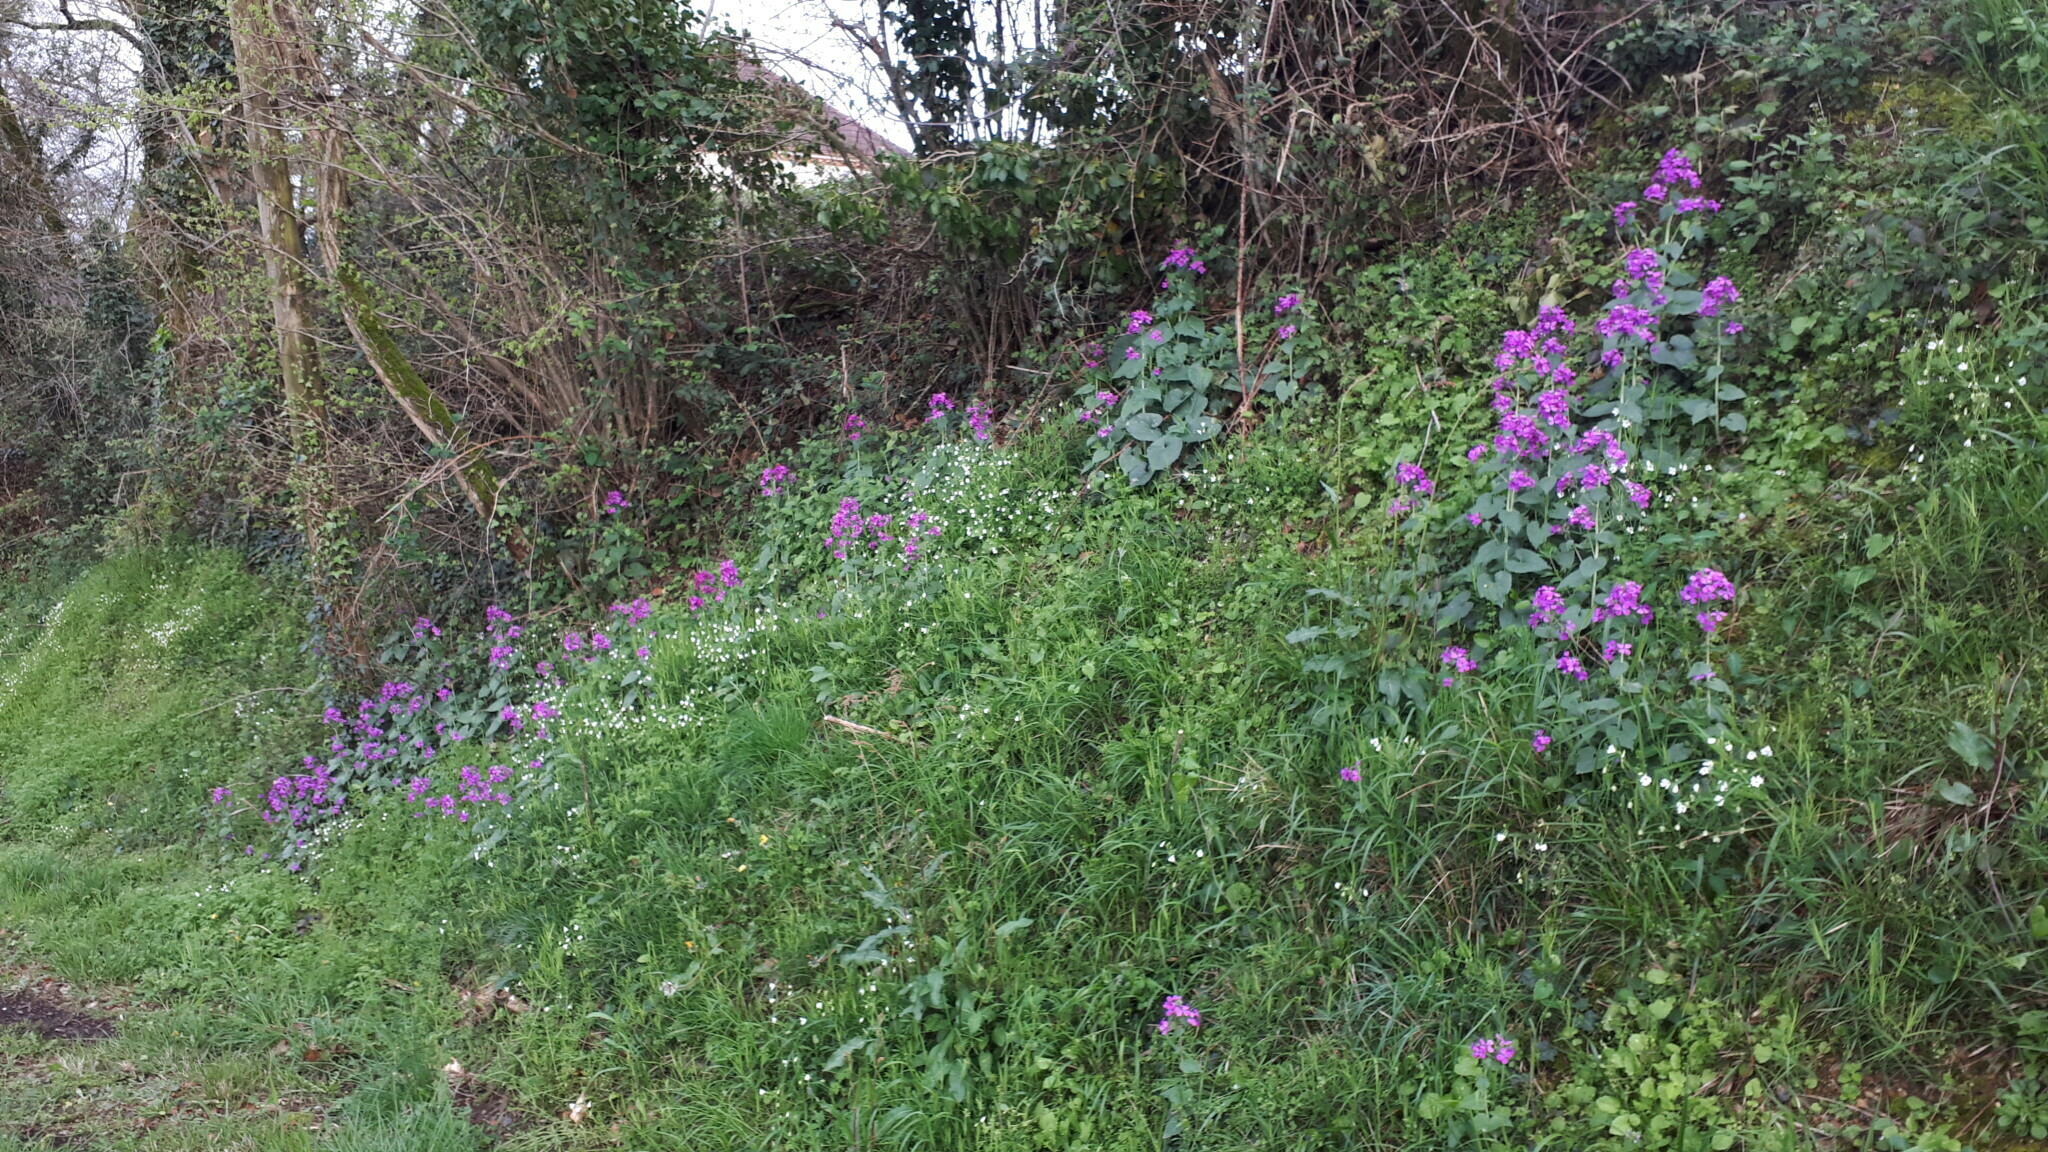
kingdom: Plantae
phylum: Tracheophyta
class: Magnoliopsida
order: Brassicales
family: Brassicaceae
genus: Lunaria
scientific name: Lunaria annua
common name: Honesty
